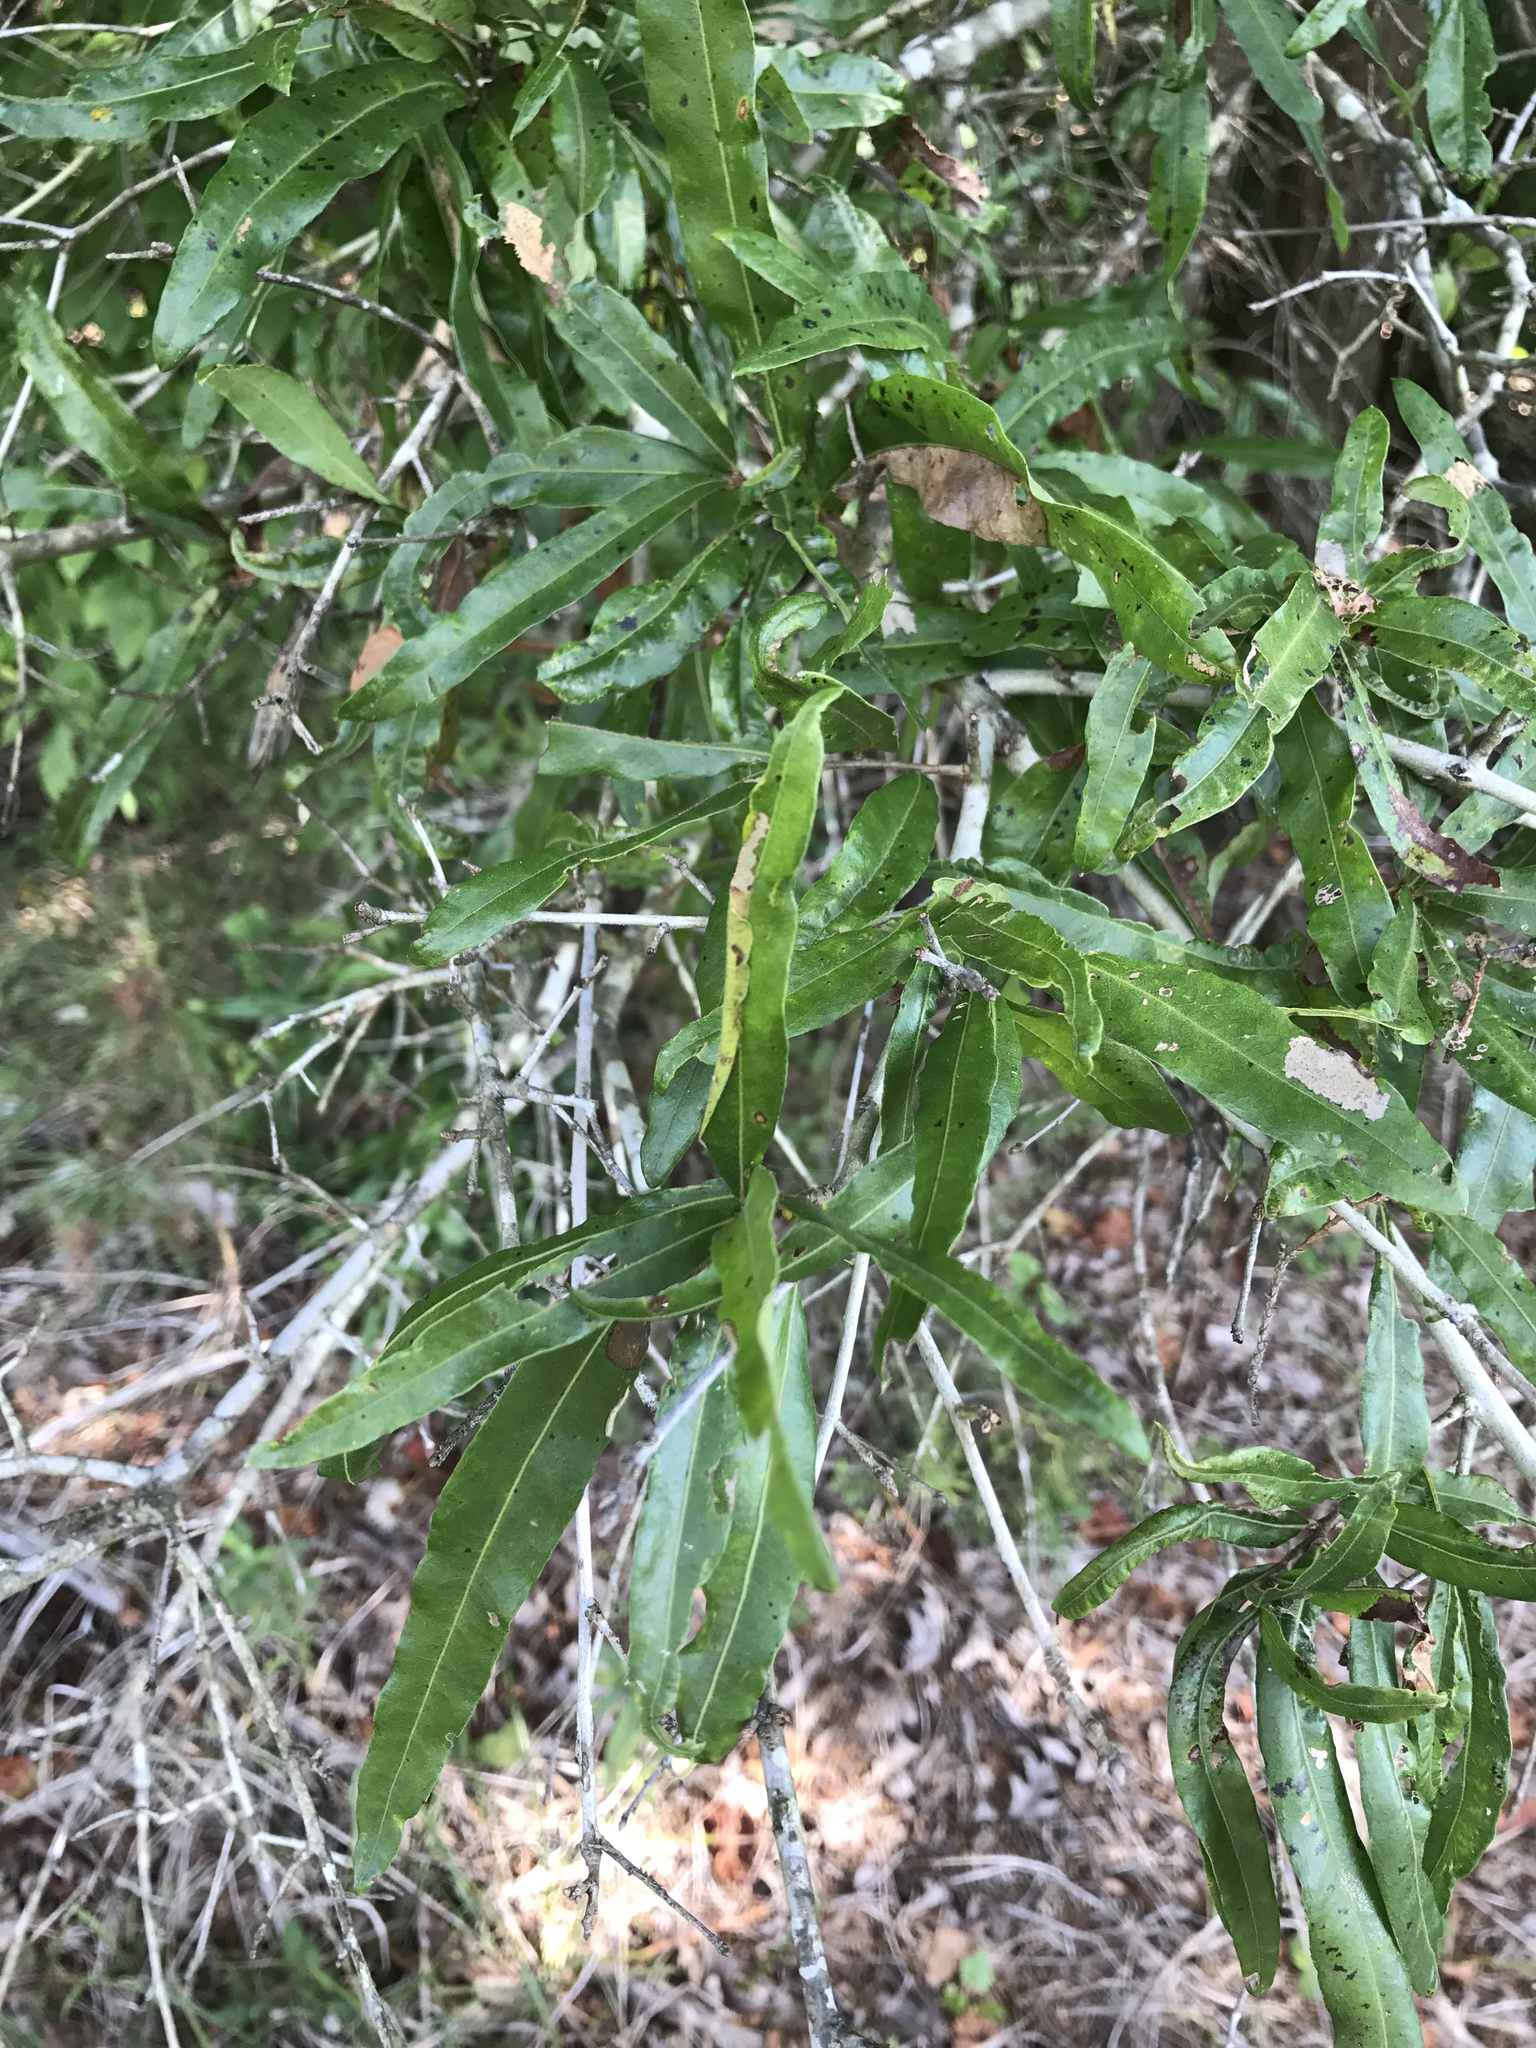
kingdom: Plantae
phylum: Tracheophyta
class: Magnoliopsida
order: Fagales
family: Fagaceae
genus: Quercus
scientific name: Quercus phellos
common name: Willow oak
